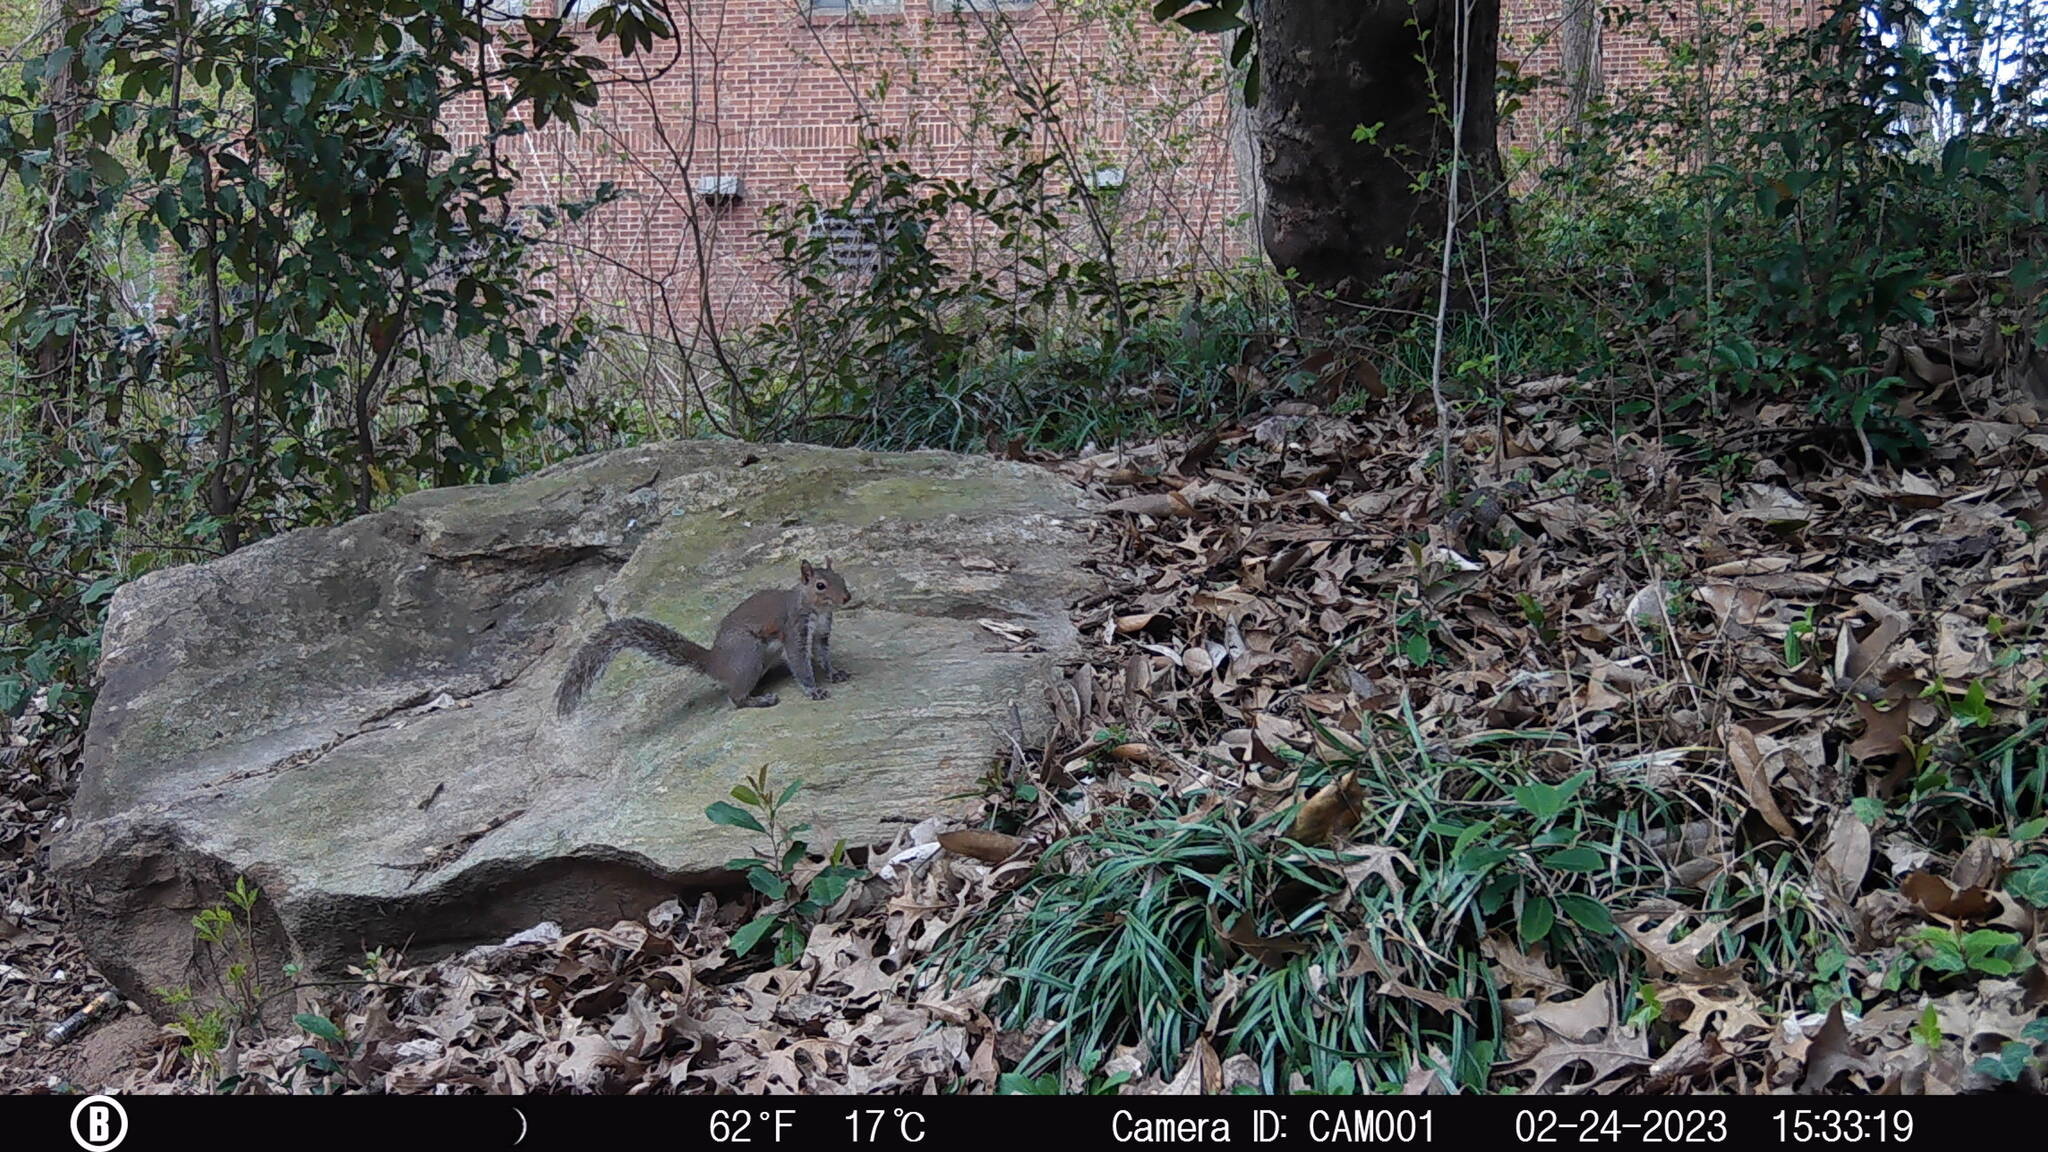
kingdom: Animalia
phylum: Chordata
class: Mammalia
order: Rodentia
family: Sciuridae
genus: Sciurus
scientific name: Sciurus carolinensis
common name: Eastern gray squirrel
